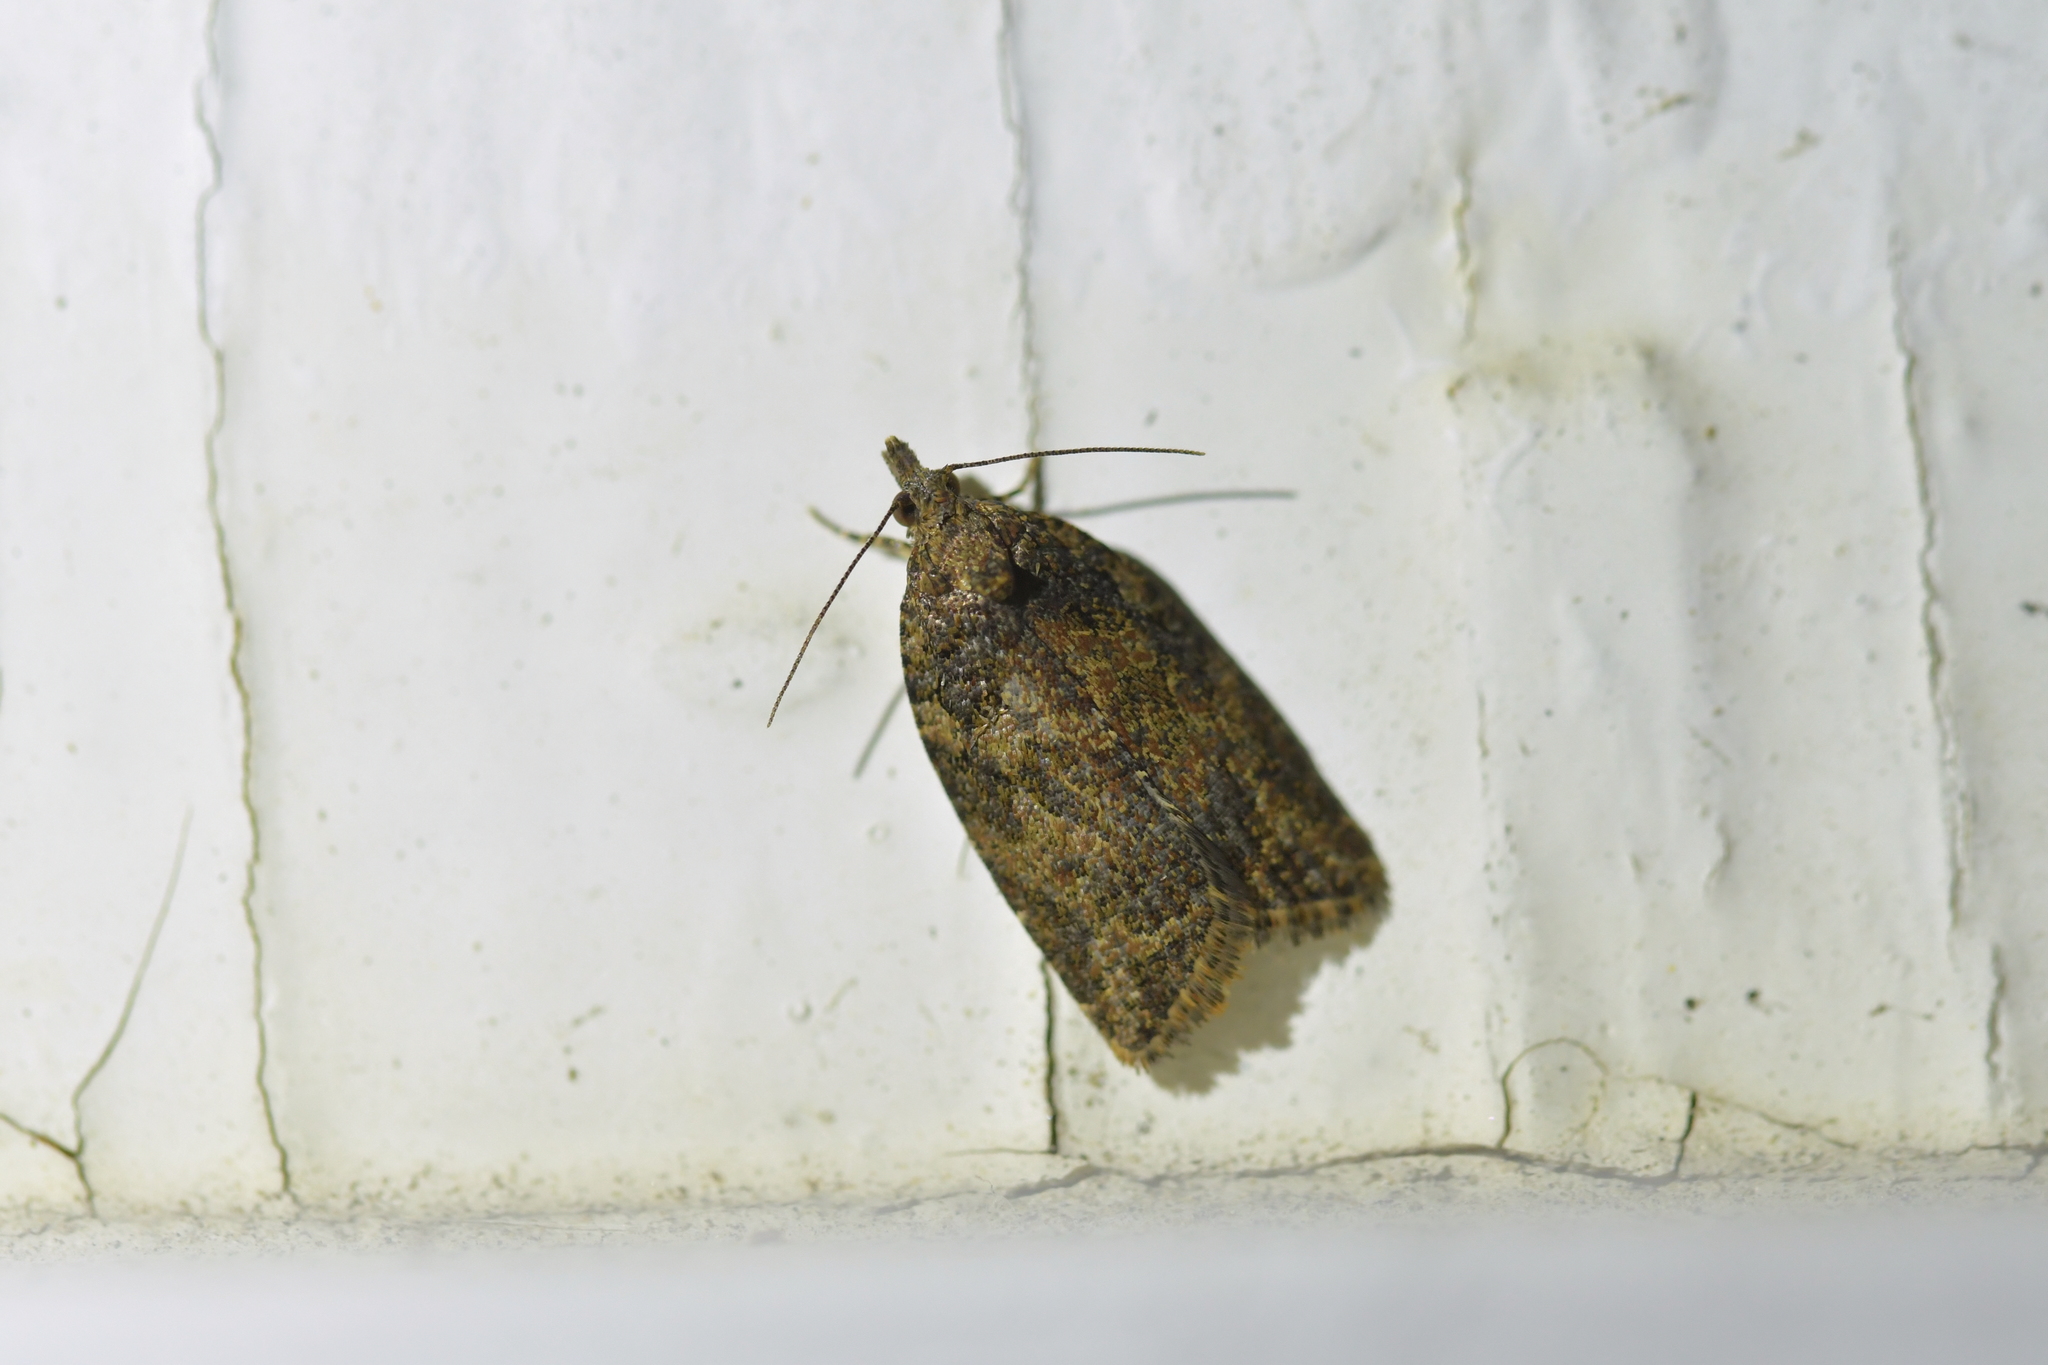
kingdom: Animalia
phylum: Arthropoda
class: Insecta
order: Lepidoptera
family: Tortricidae
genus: Capua
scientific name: Capua intractana
